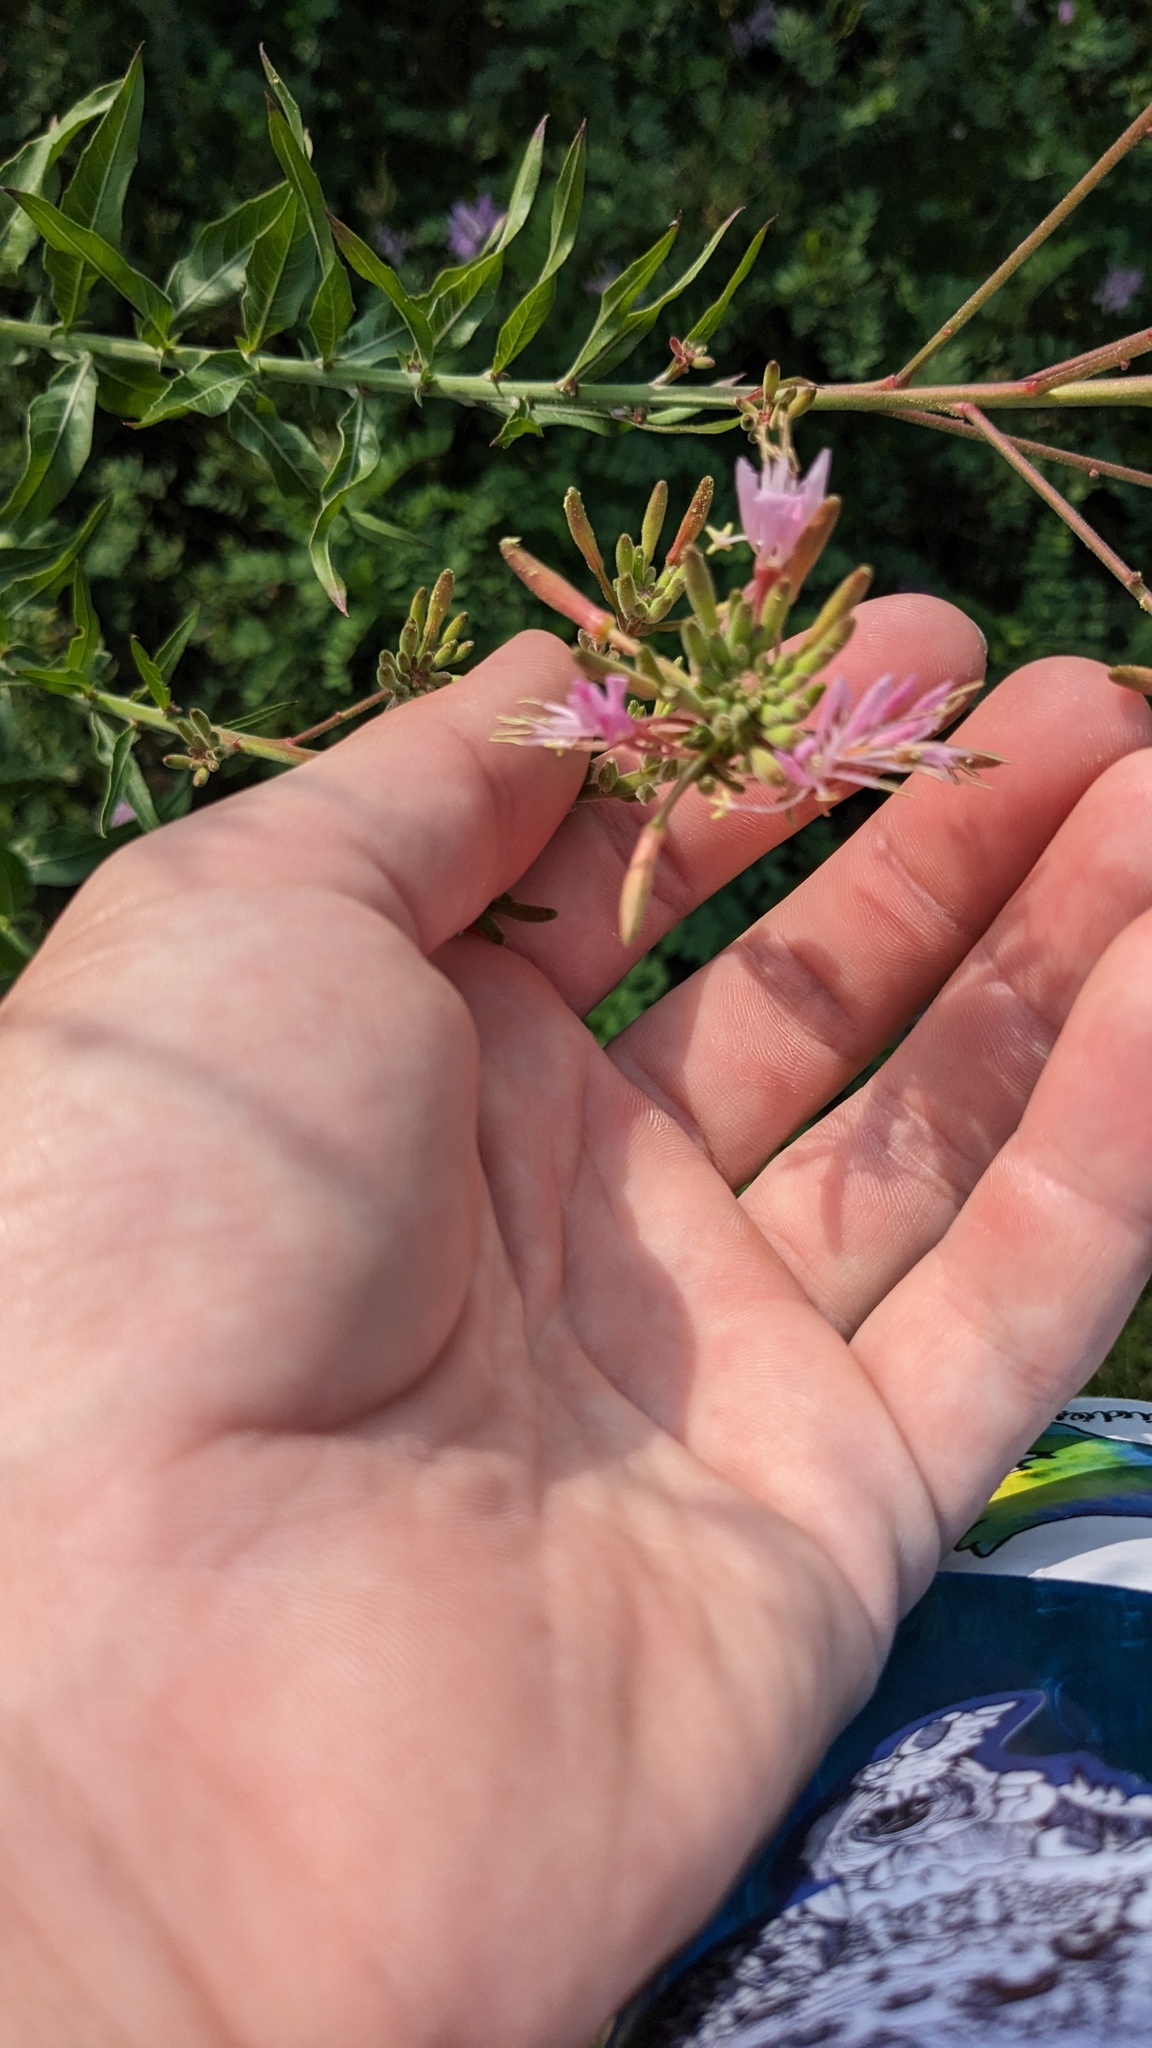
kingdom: Plantae
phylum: Tracheophyta
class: Magnoliopsida
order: Myrtales
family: Onagraceae
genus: Oenothera
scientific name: Oenothera gaura
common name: Biennial beeblossom
